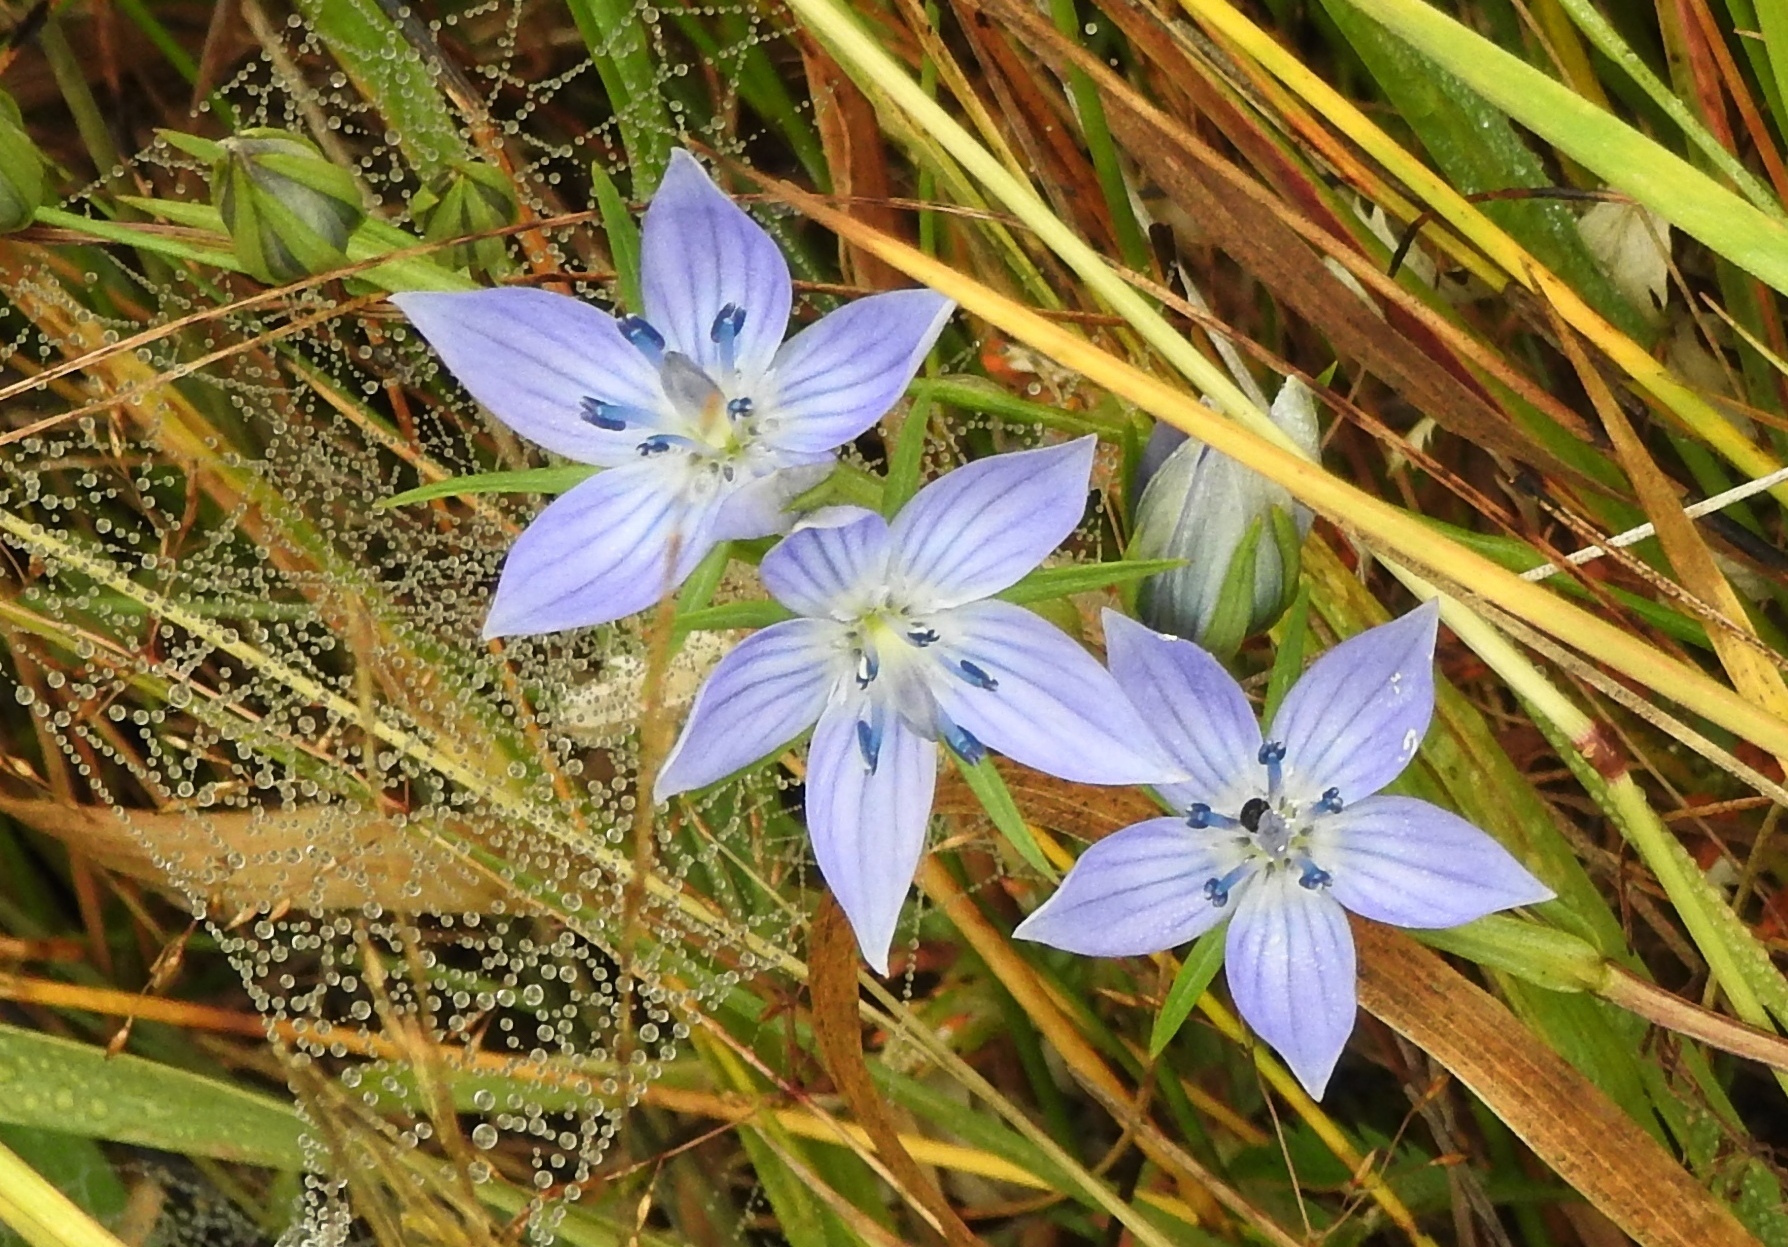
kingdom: Plantae
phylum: Tracheophyta
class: Magnoliopsida
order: Gentianales
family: Gentianaceae
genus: Lomatogonium
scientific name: Lomatogonium rotatum
